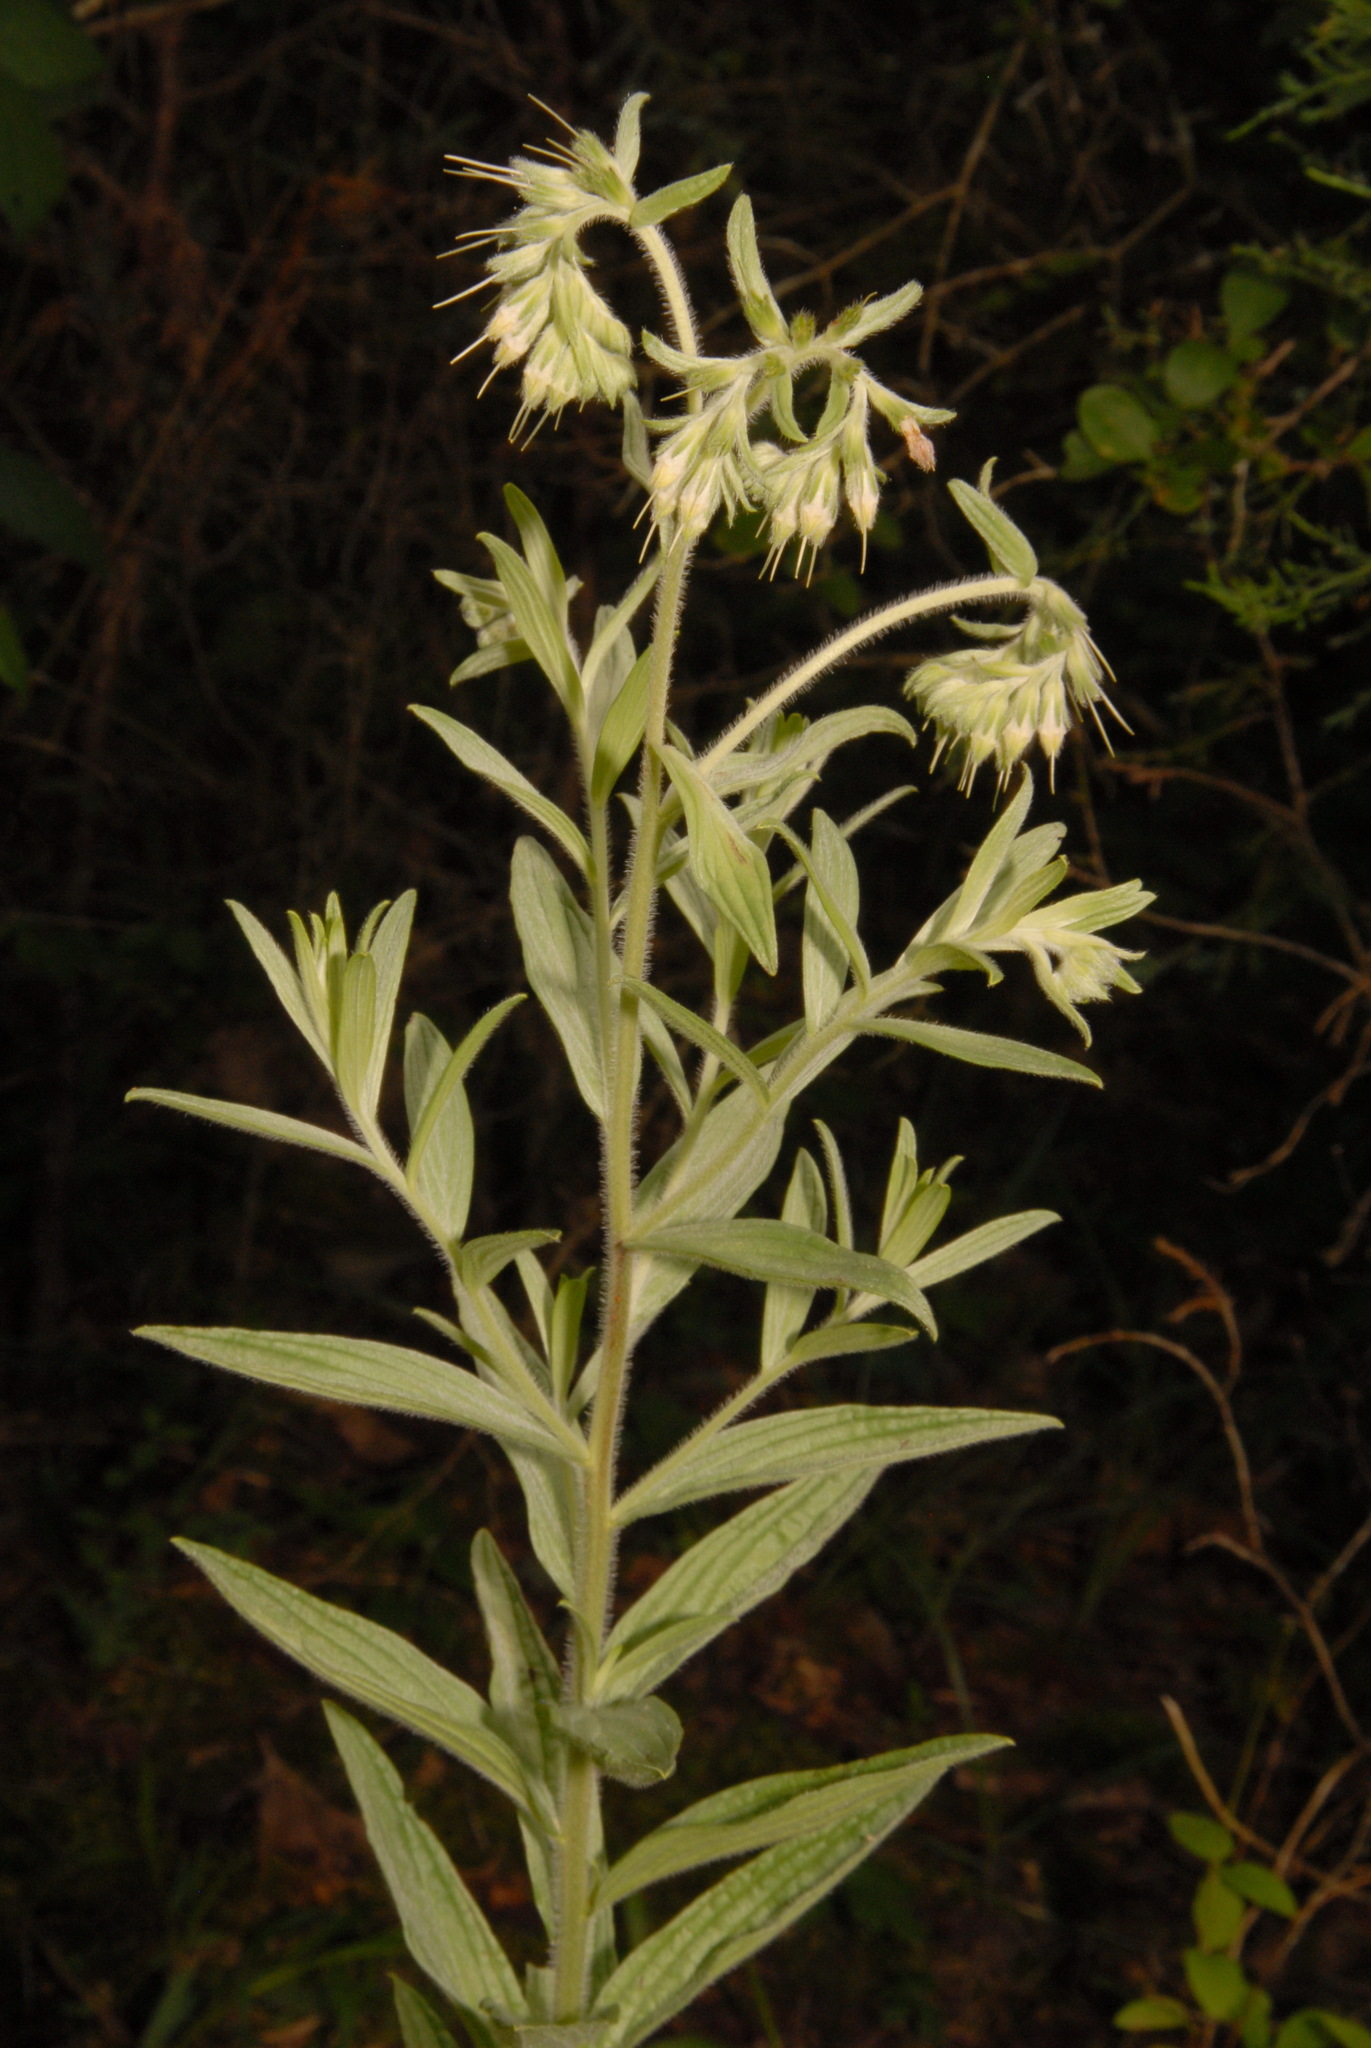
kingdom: Plantae
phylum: Tracheophyta
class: Magnoliopsida
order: Boraginales
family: Boraginaceae
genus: Lithospermum
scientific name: Lithospermum molle
